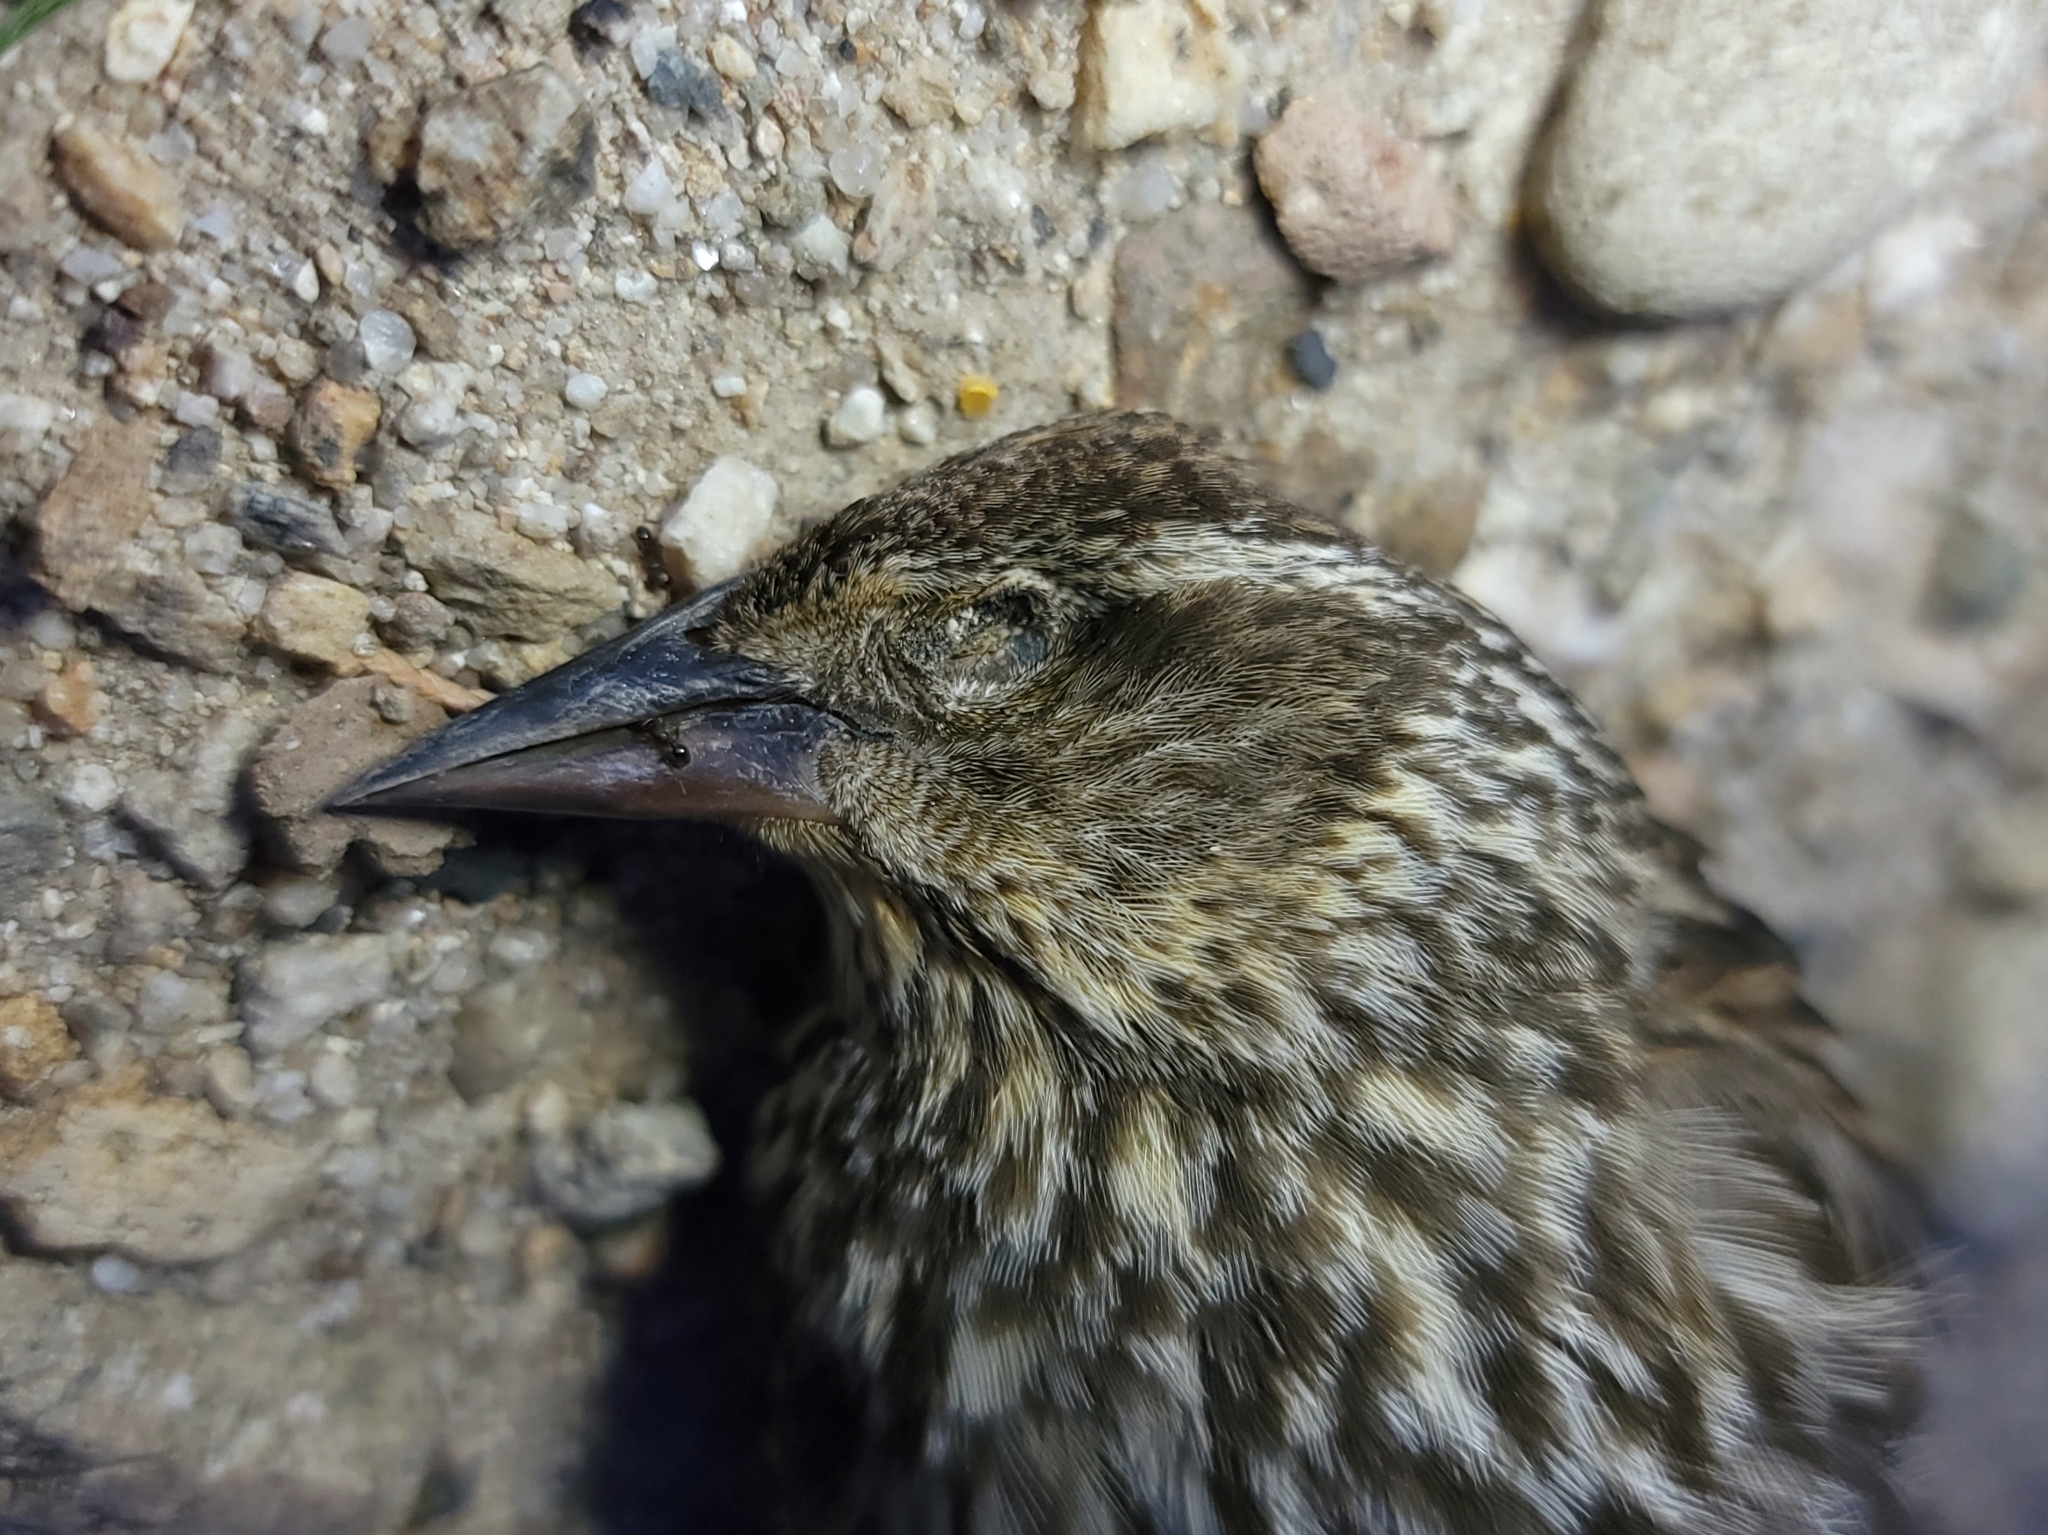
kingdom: Animalia
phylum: Chordata
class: Aves
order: Passeriformes
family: Icteridae
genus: Agelaius
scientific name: Agelaius phoeniceus
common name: Red-winged blackbird
